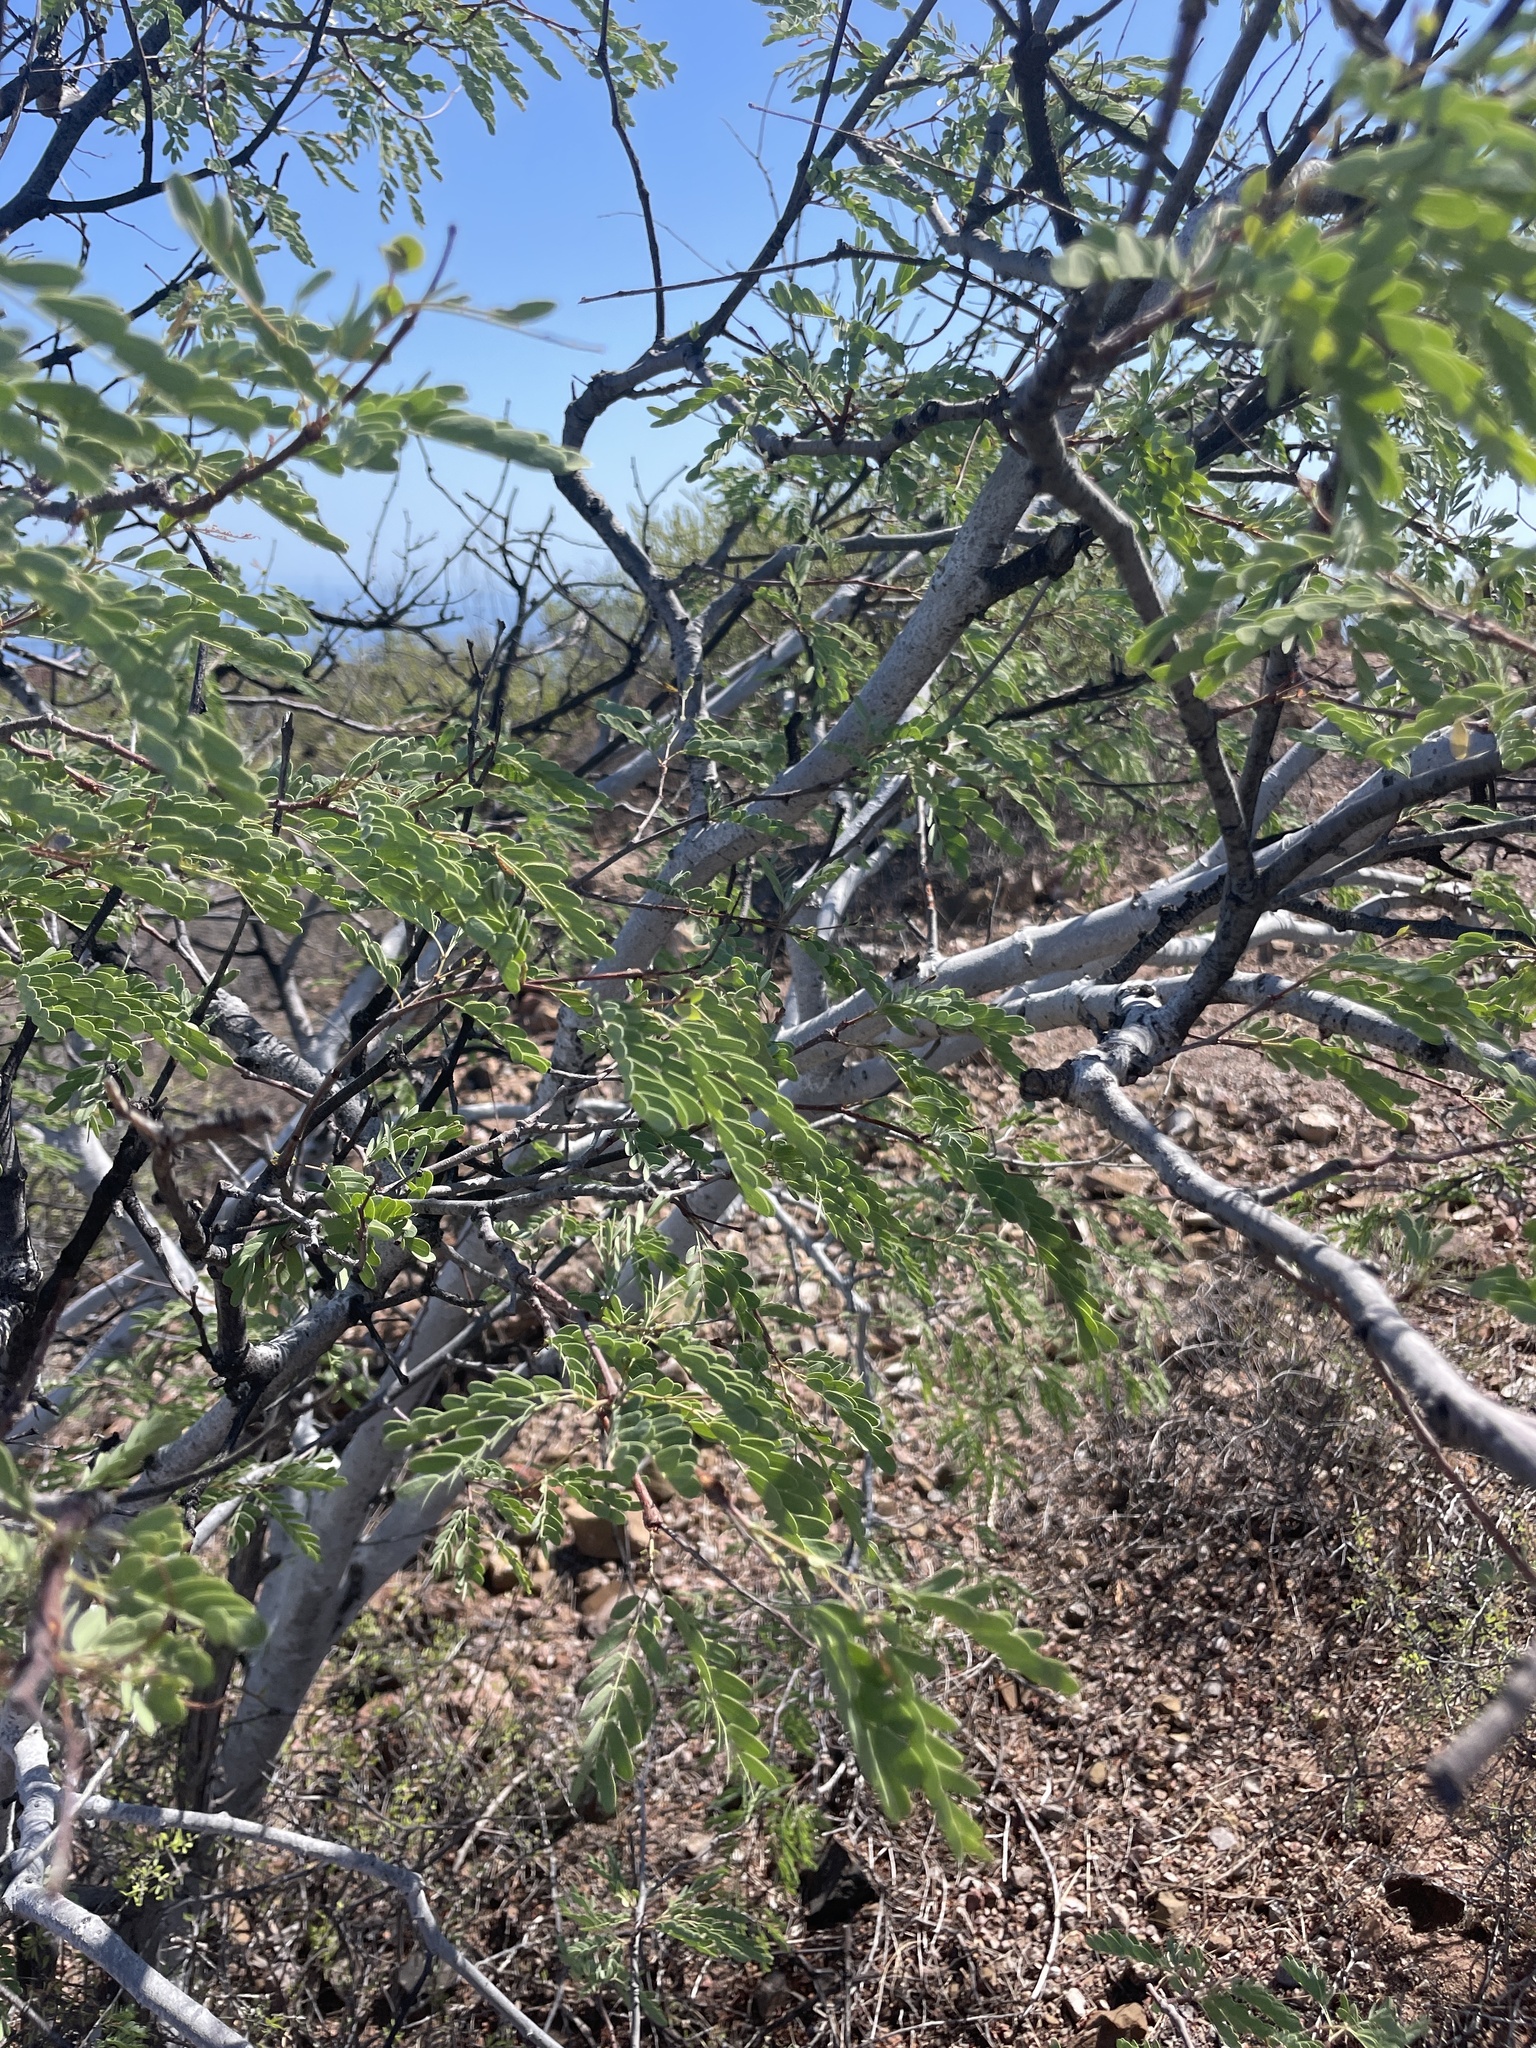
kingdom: Plantae
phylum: Tracheophyta
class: Magnoliopsida
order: Fabales
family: Fabaceae
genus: Lysiloma
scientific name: Lysiloma candidum
